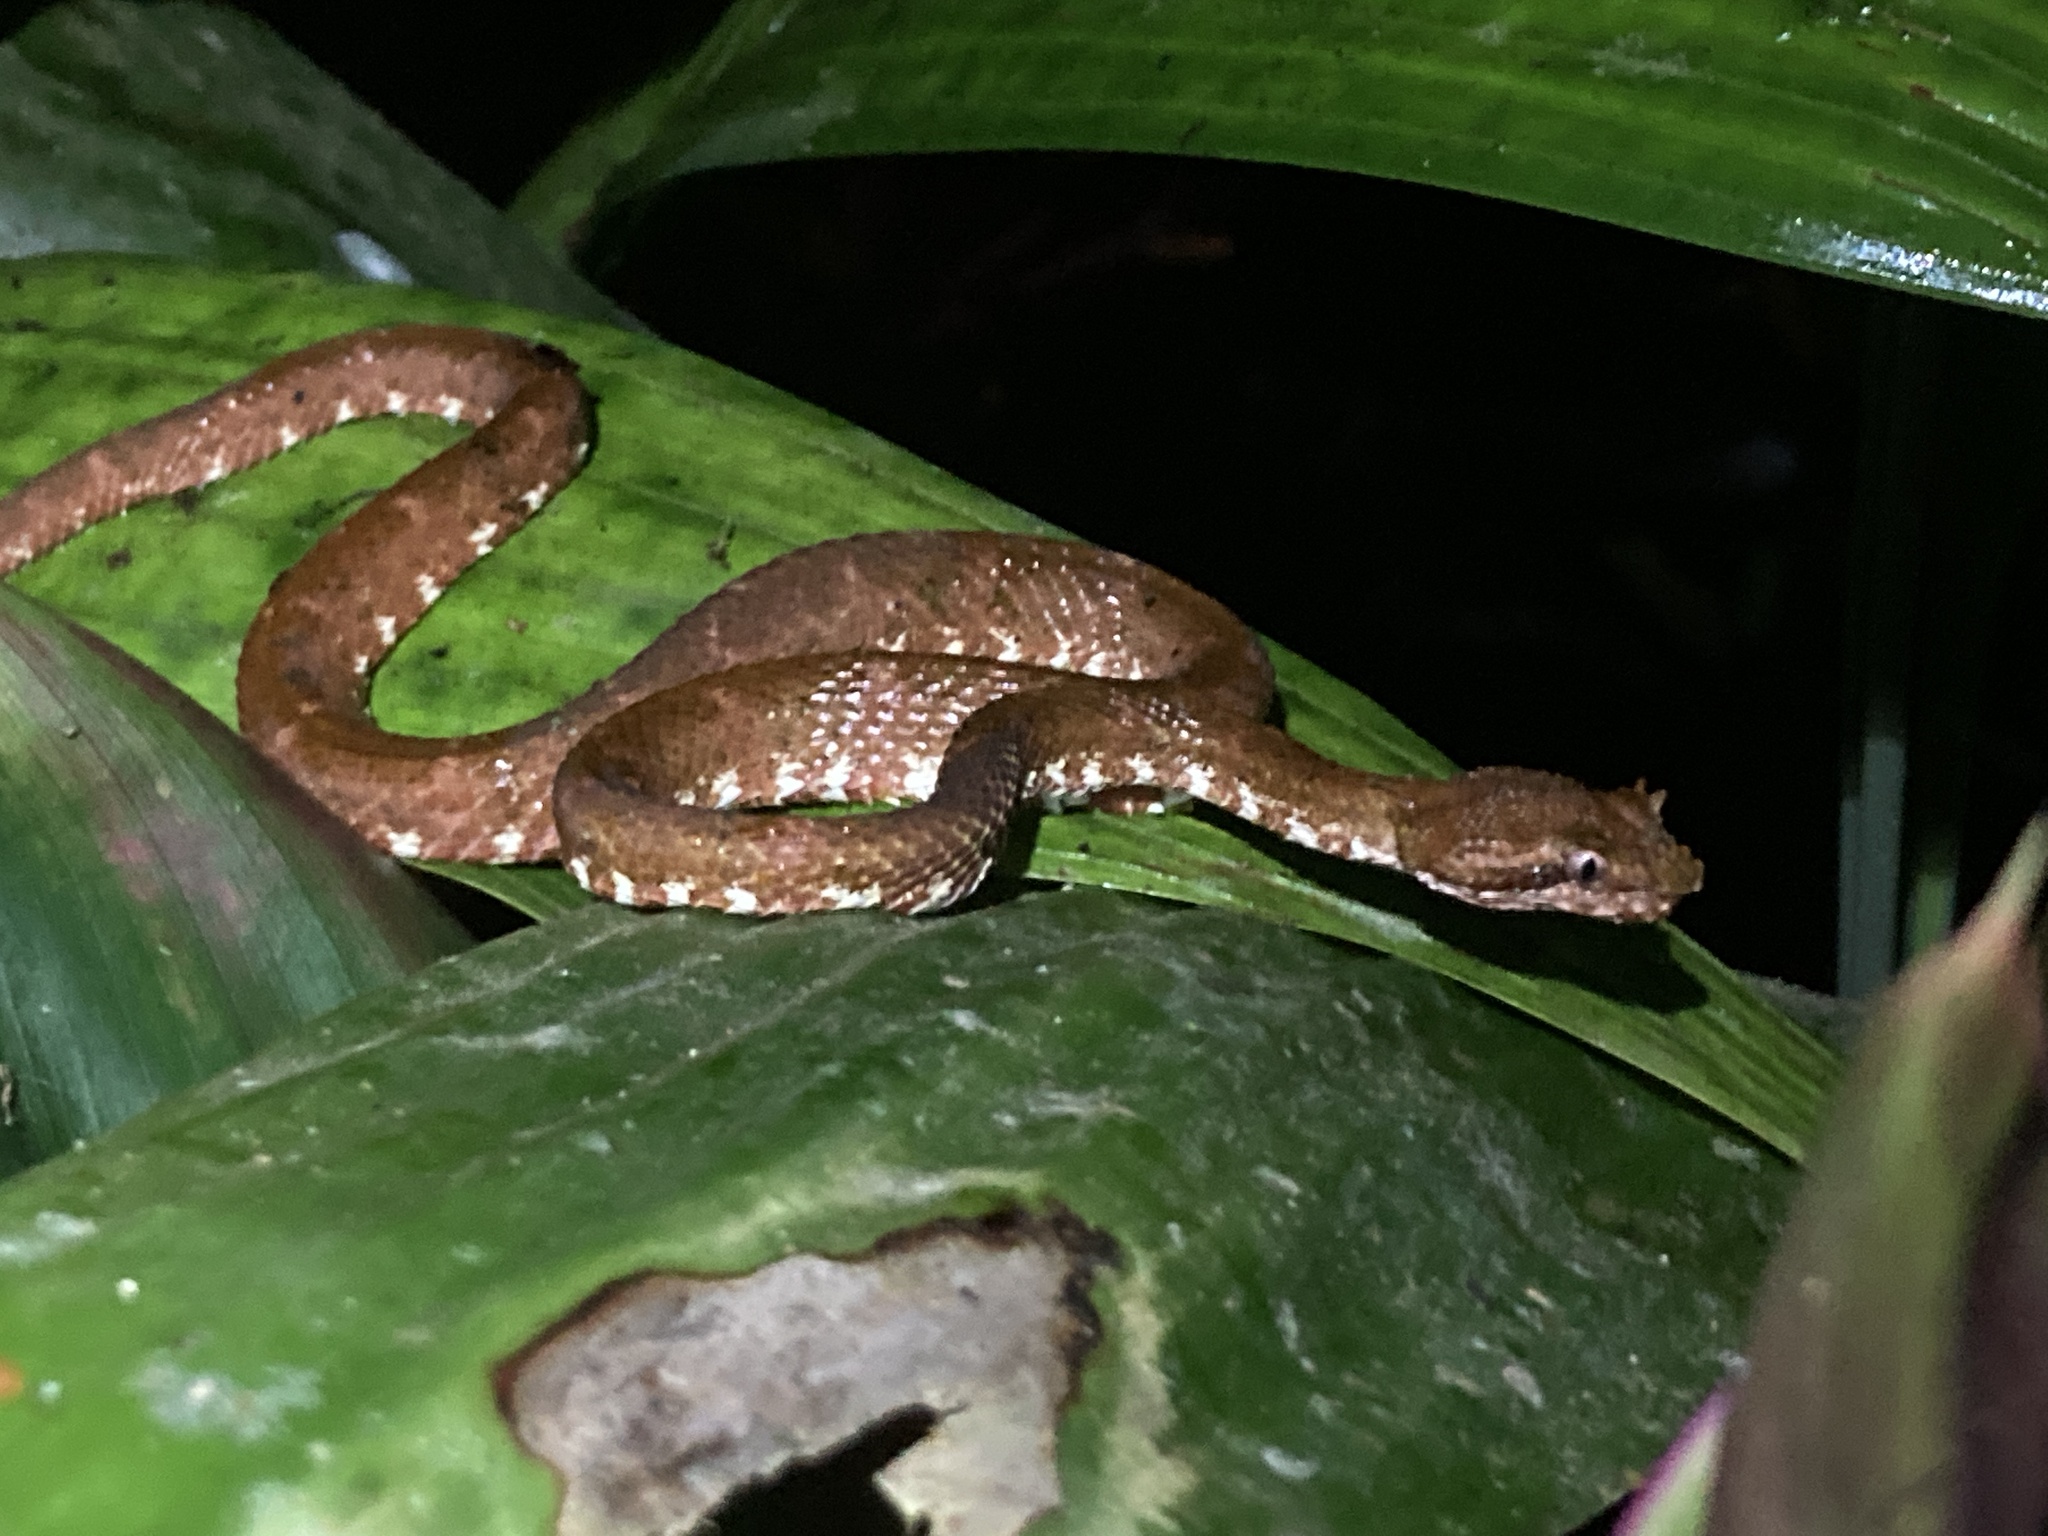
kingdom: Animalia
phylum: Chordata
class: Squamata
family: Viperidae
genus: Bothriechis
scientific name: Bothriechis schlegelii
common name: Eyelash viper
